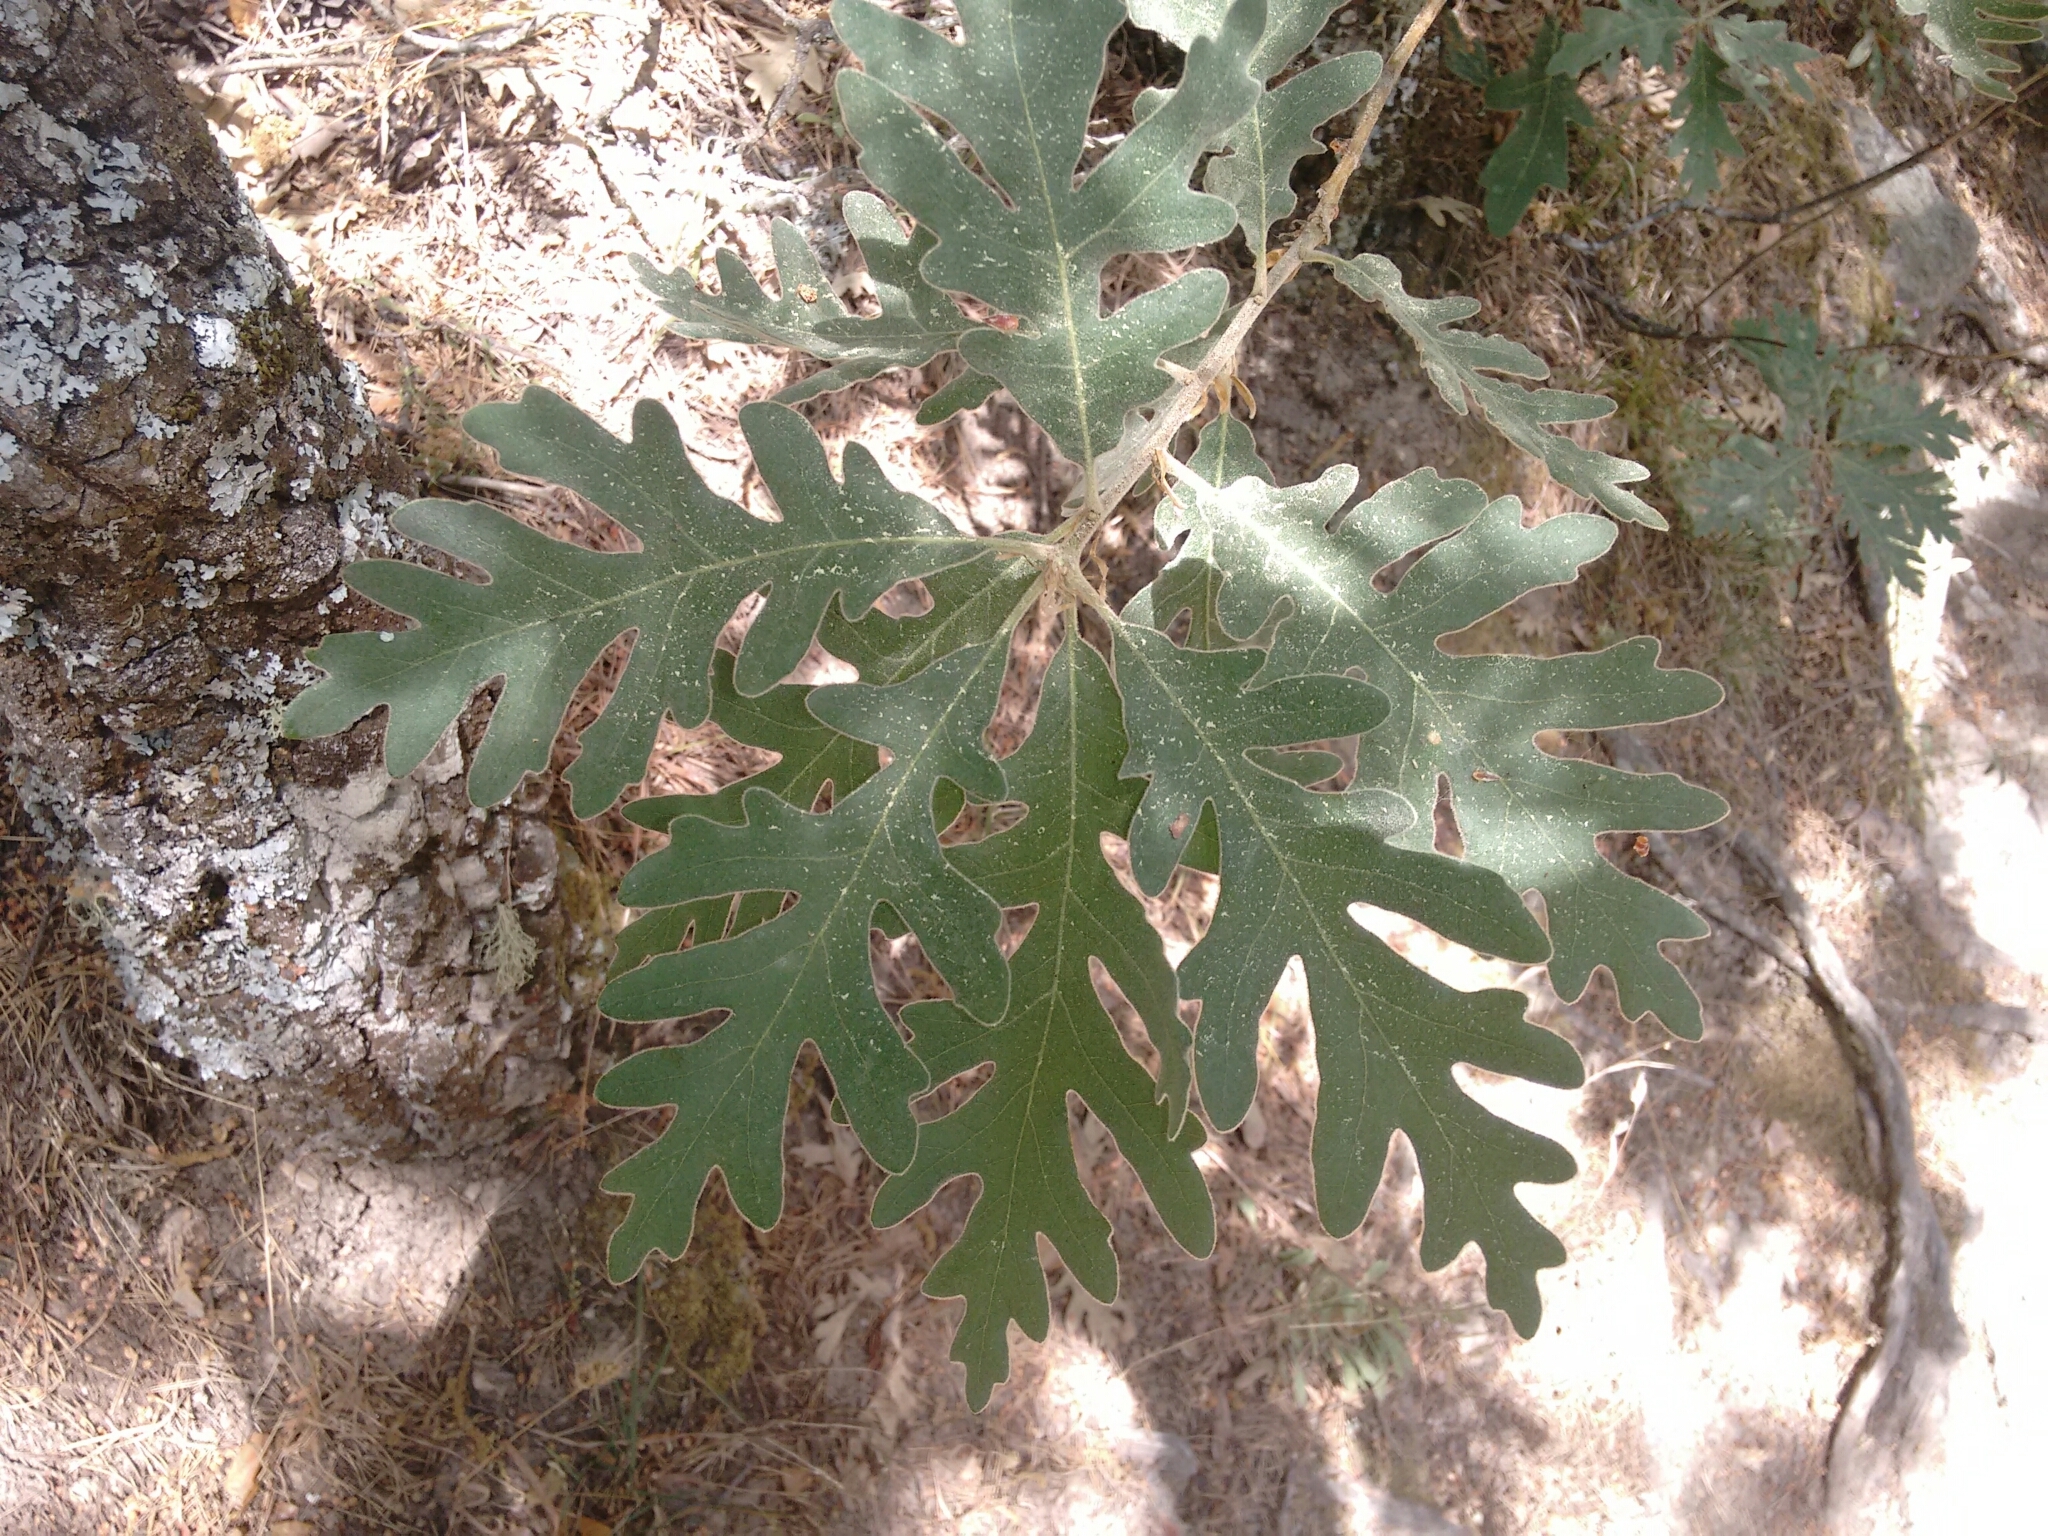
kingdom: Plantae
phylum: Tracheophyta
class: Magnoliopsida
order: Fagales
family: Fagaceae
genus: Quercus
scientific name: Quercus pyrenaica
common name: Pyrenean oak
